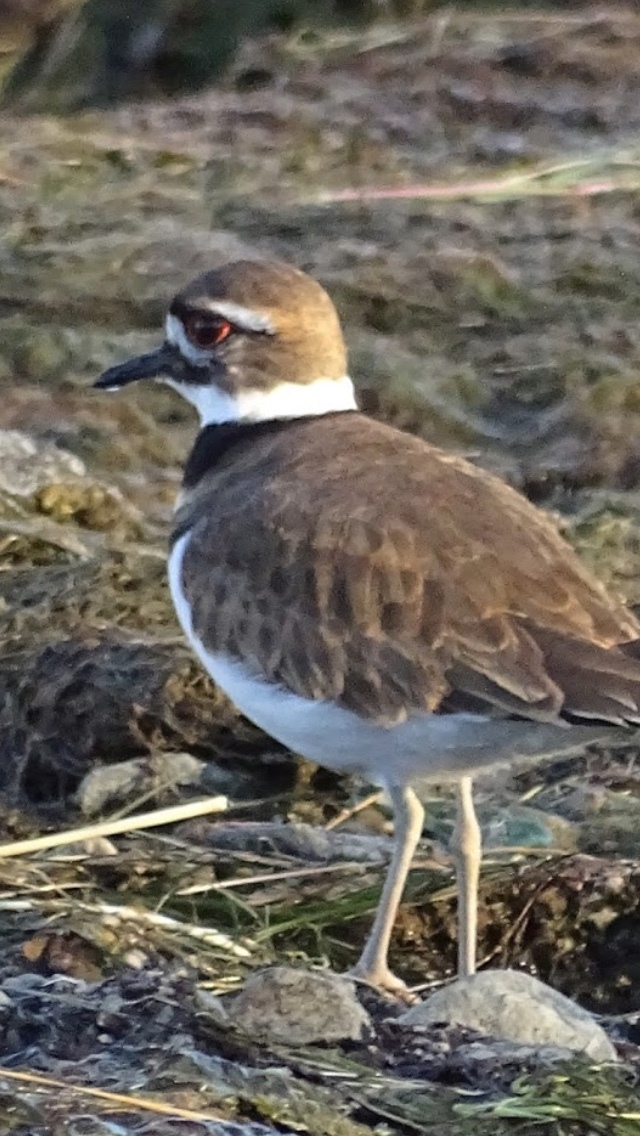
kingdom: Animalia
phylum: Chordata
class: Aves
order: Charadriiformes
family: Charadriidae
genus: Charadrius
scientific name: Charadrius vociferus
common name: Killdeer
